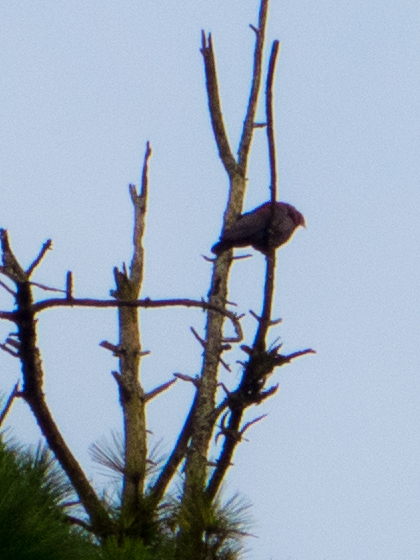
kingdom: Animalia
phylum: Chordata
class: Aves
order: Columbiformes
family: Columbidae
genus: Patagioenas
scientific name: Patagioenas flavirostris
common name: Red-billed pigeon
